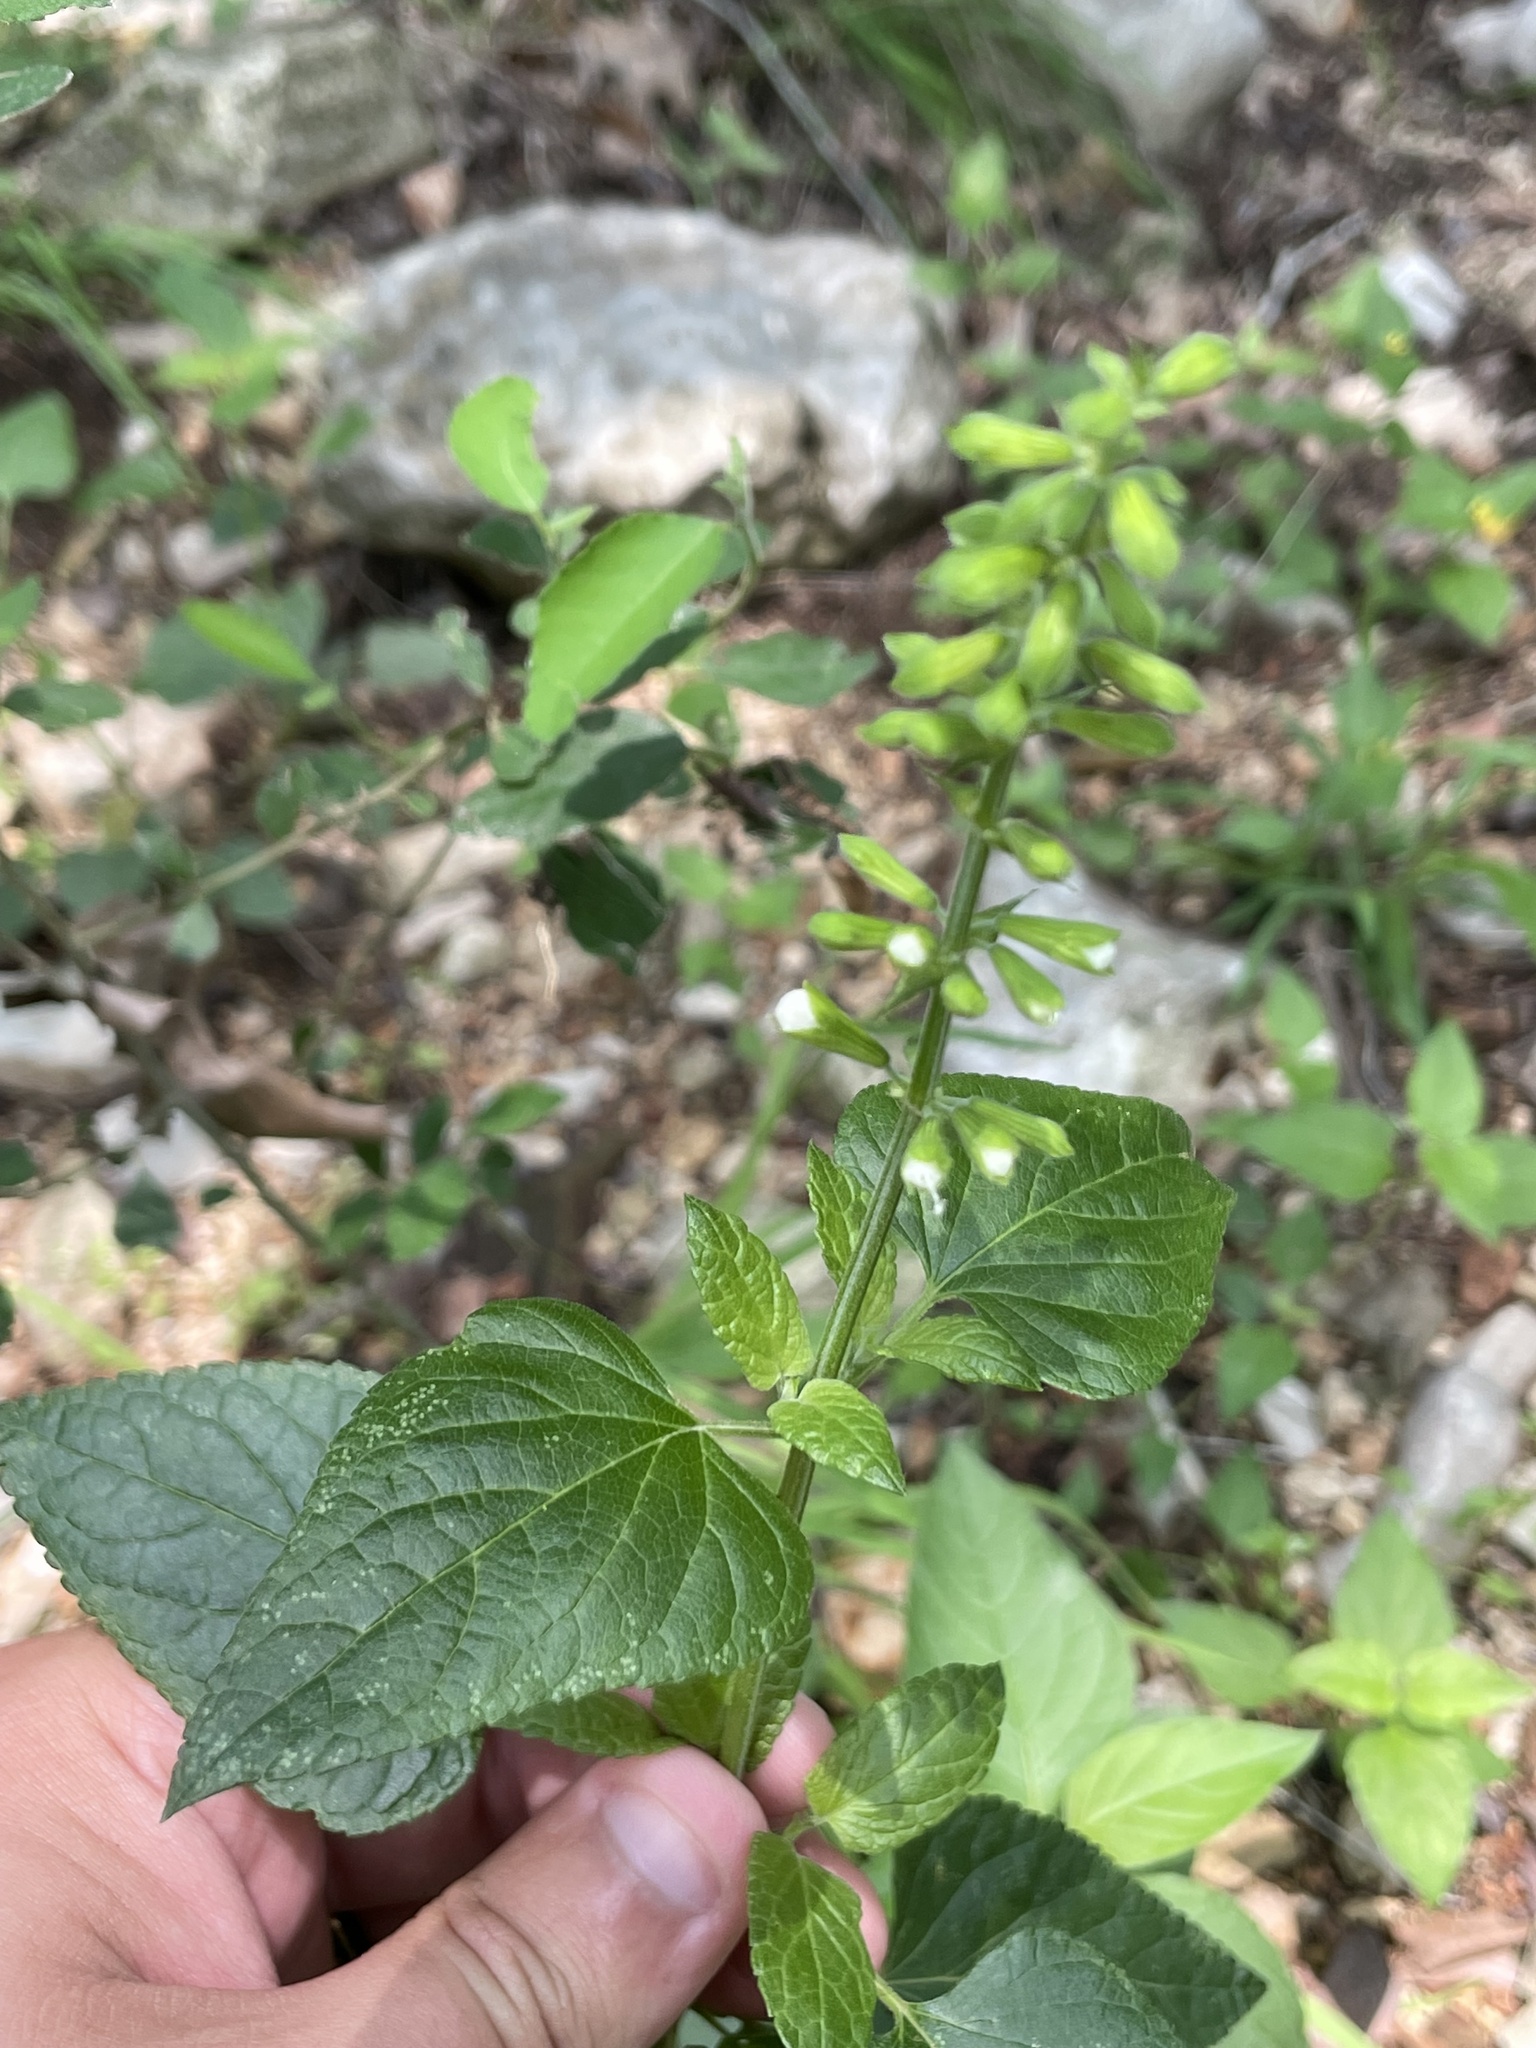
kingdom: Plantae
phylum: Tracheophyta
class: Magnoliopsida
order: Lamiales
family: Lamiaceae
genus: Salvia
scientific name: Salvia coccinea
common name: Blood sage
